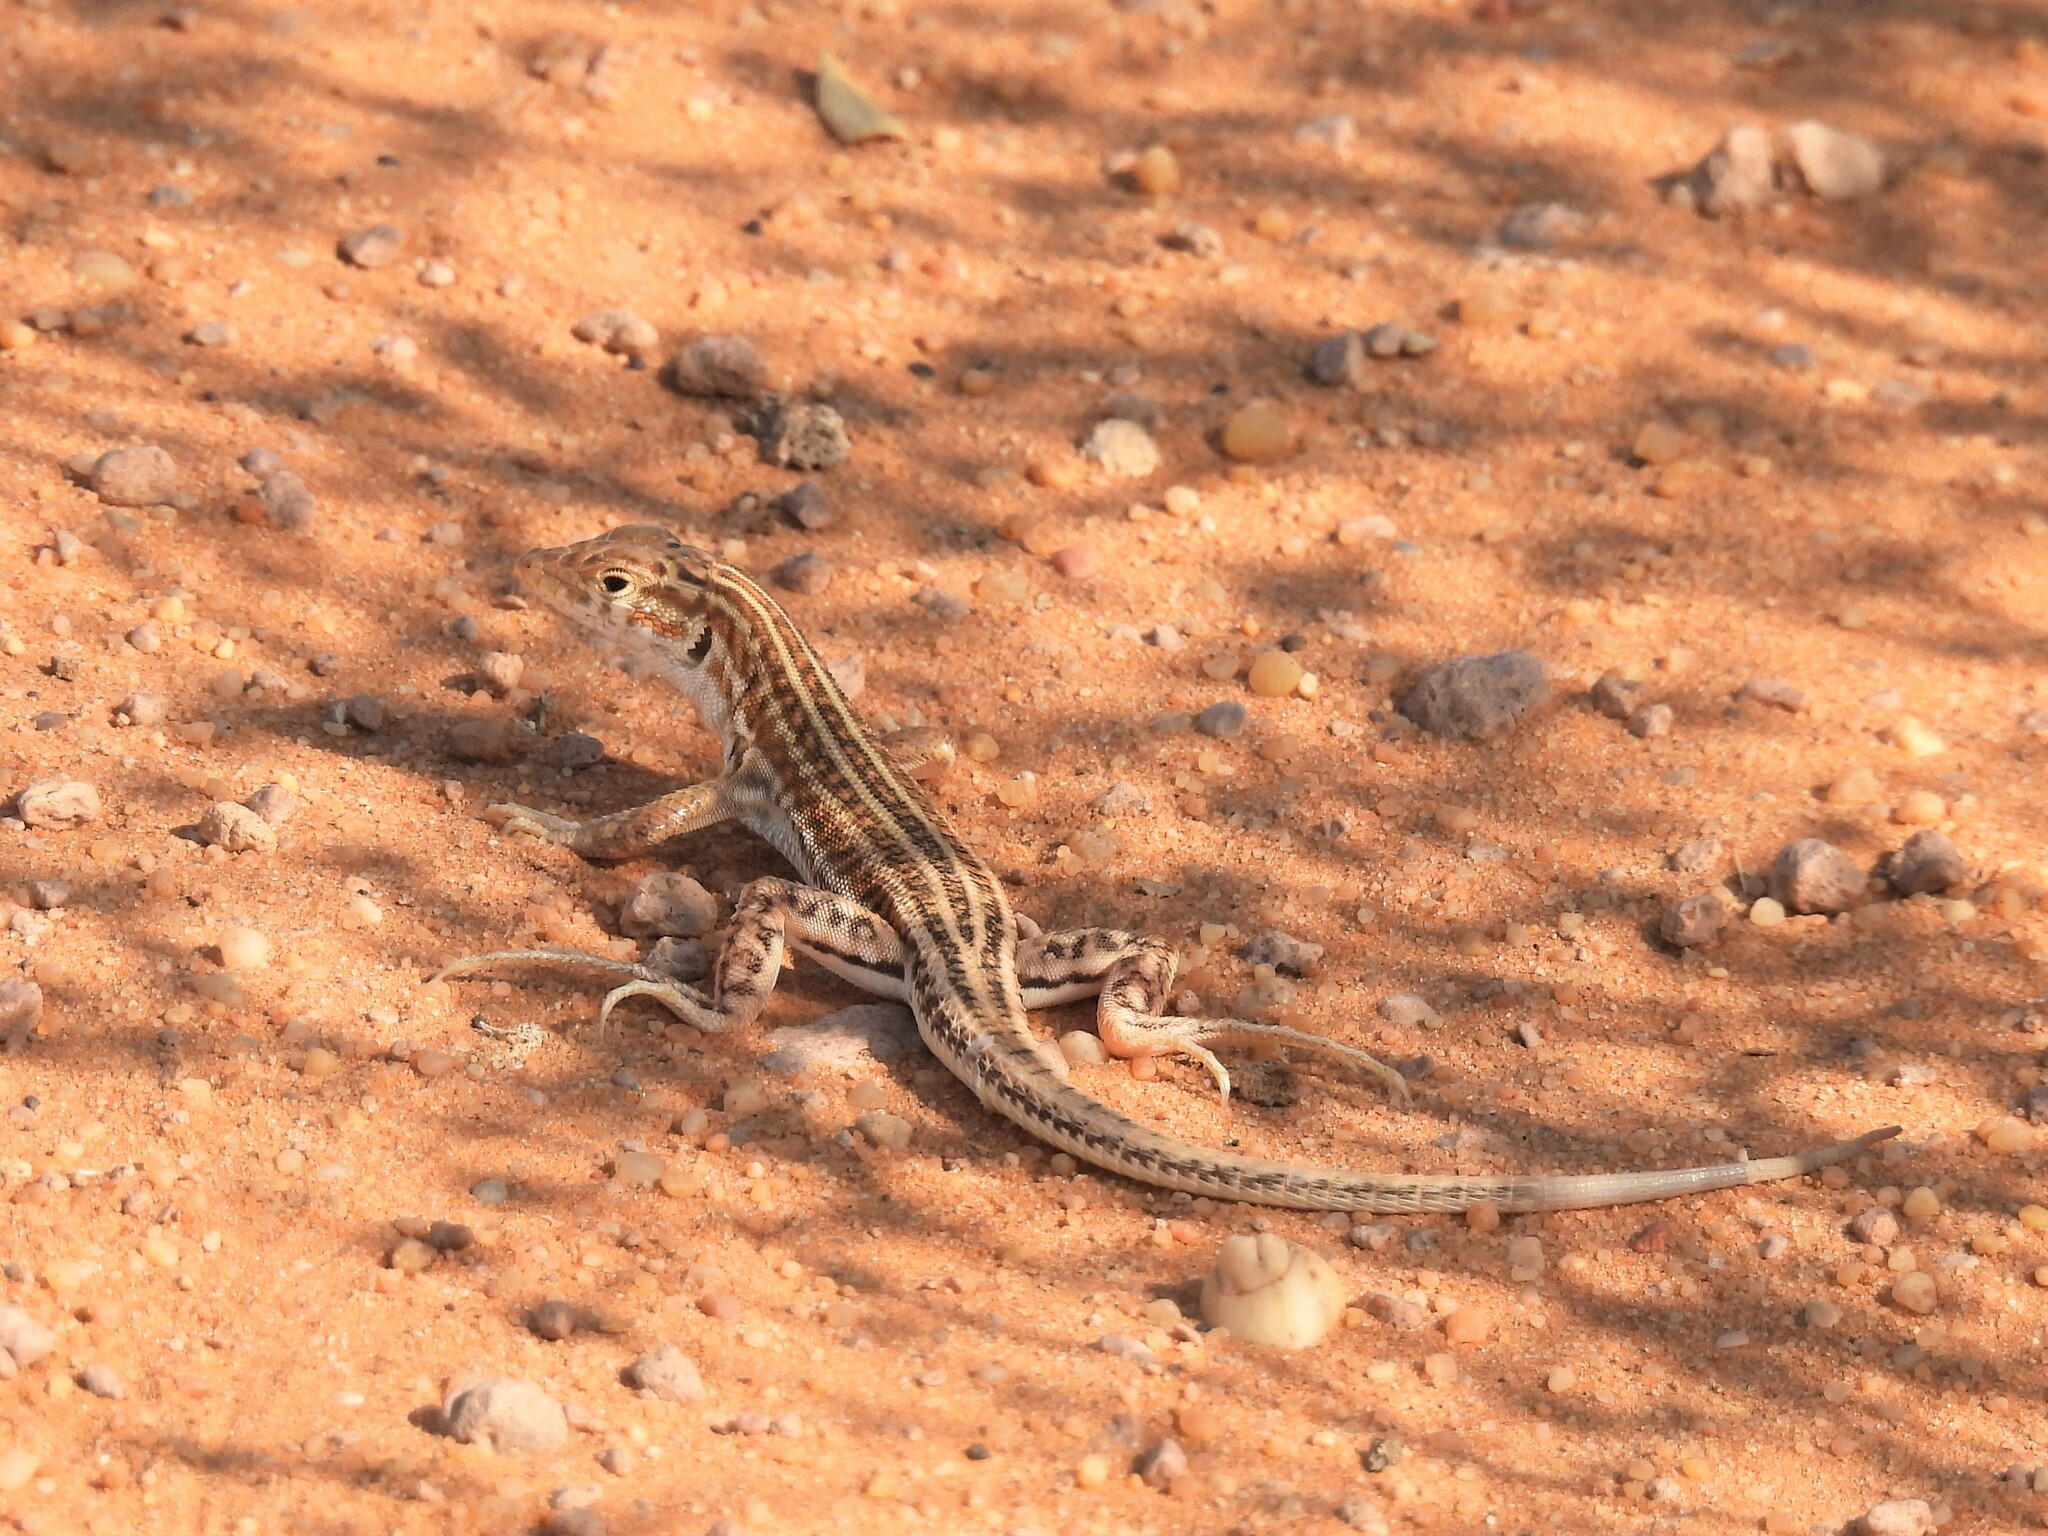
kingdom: Animalia
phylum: Chordata
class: Squamata
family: Lacertidae
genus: Acanthodactylus
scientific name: Acanthodactylus opheodurus
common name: Arnold's fringe-fingered lizard
